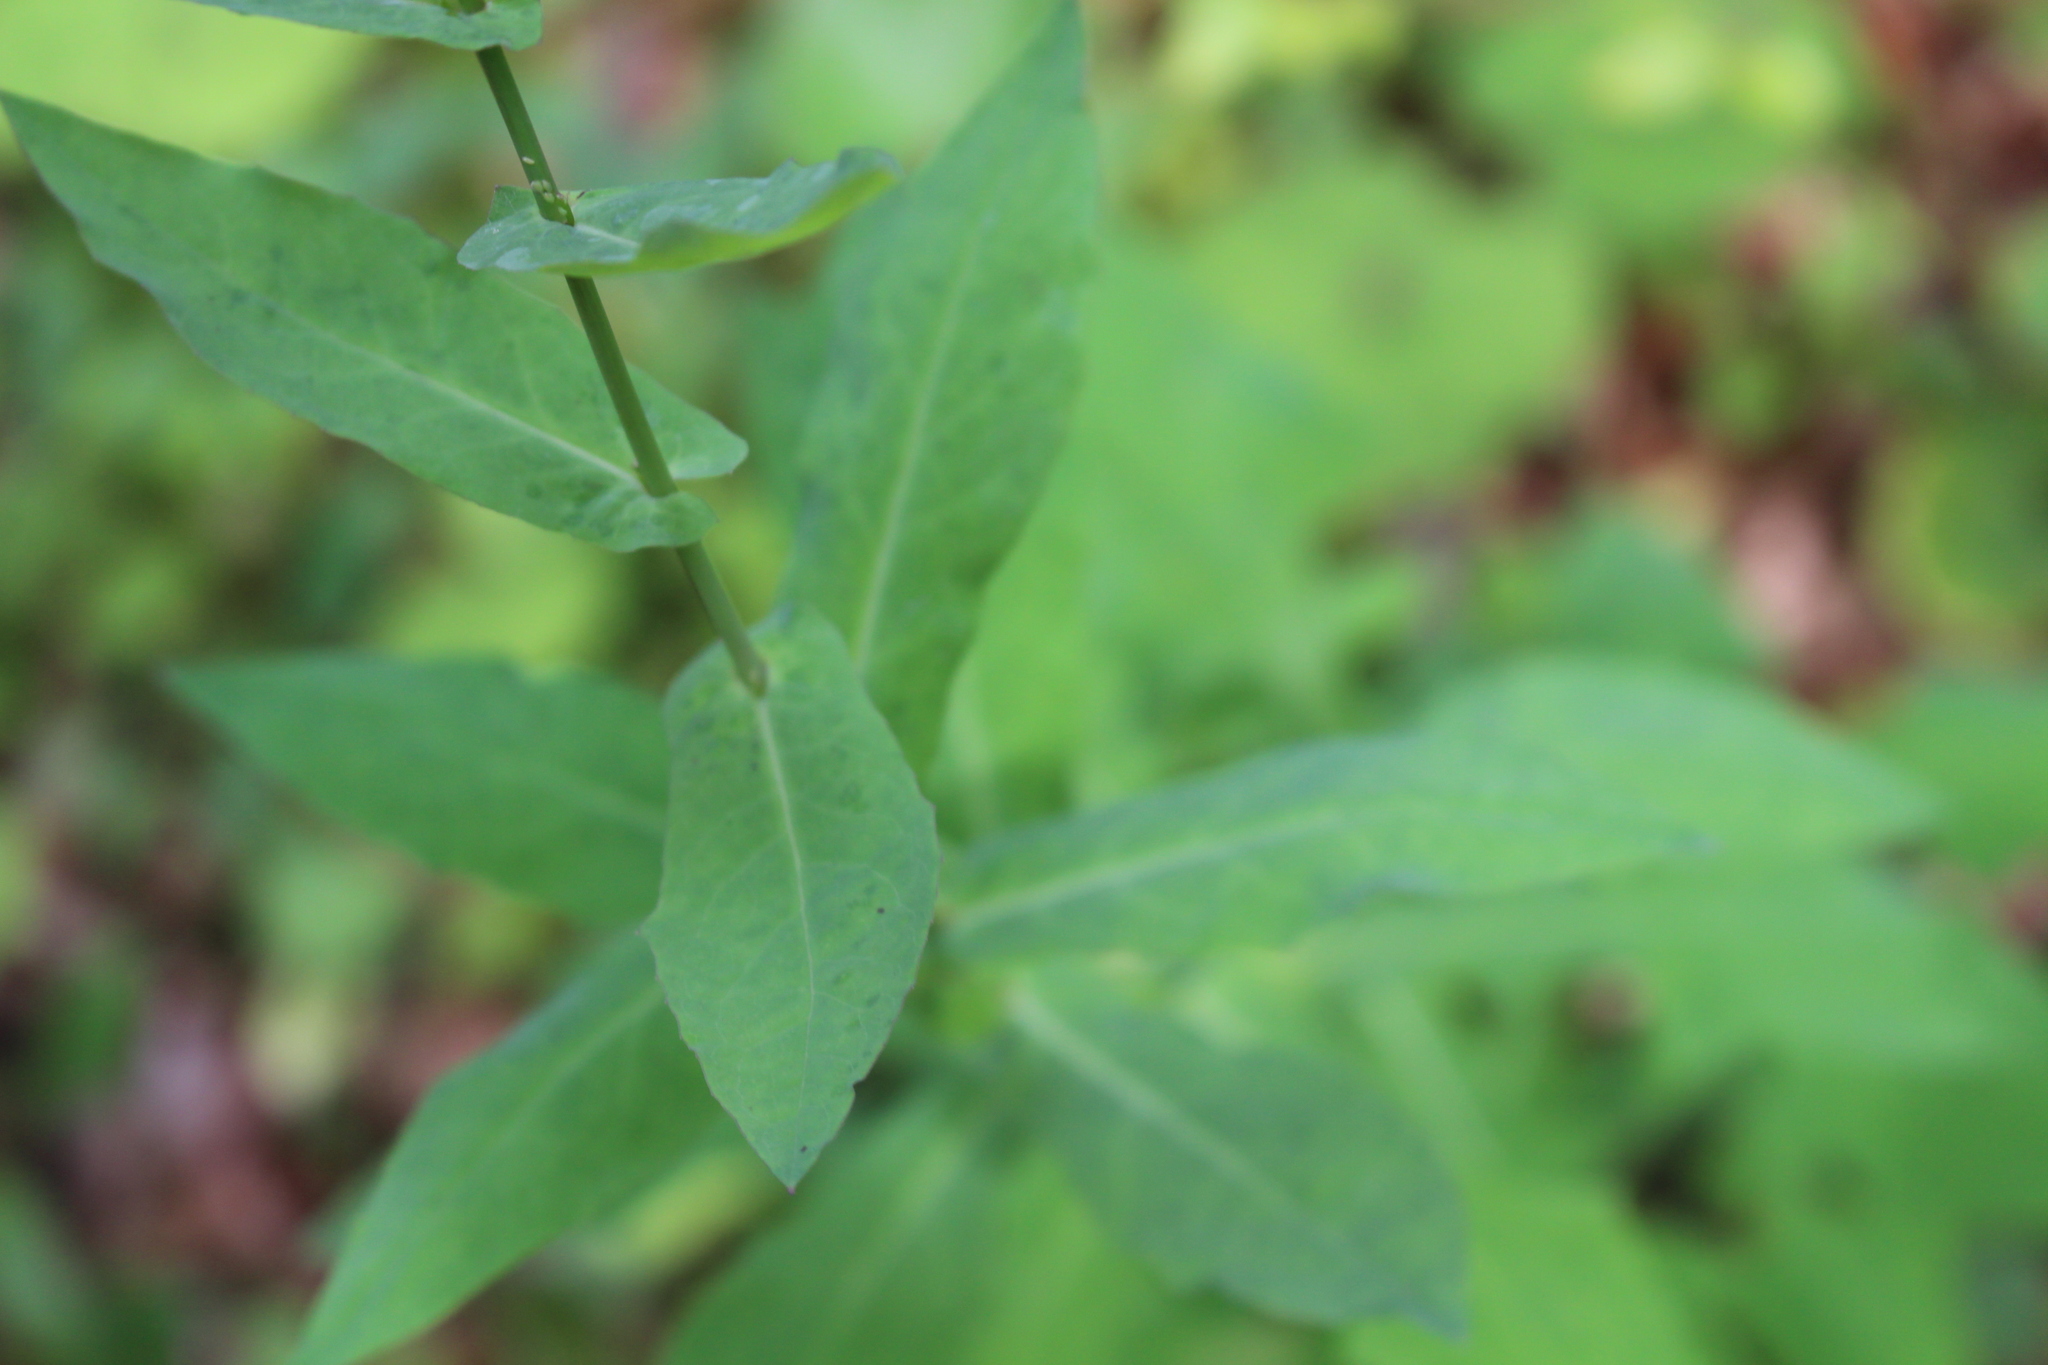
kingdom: Plantae
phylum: Tracheophyta
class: Magnoliopsida
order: Asterales
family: Asteraceae
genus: Prenanthes
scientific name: Prenanthes purpurea
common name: Purple lettuce
